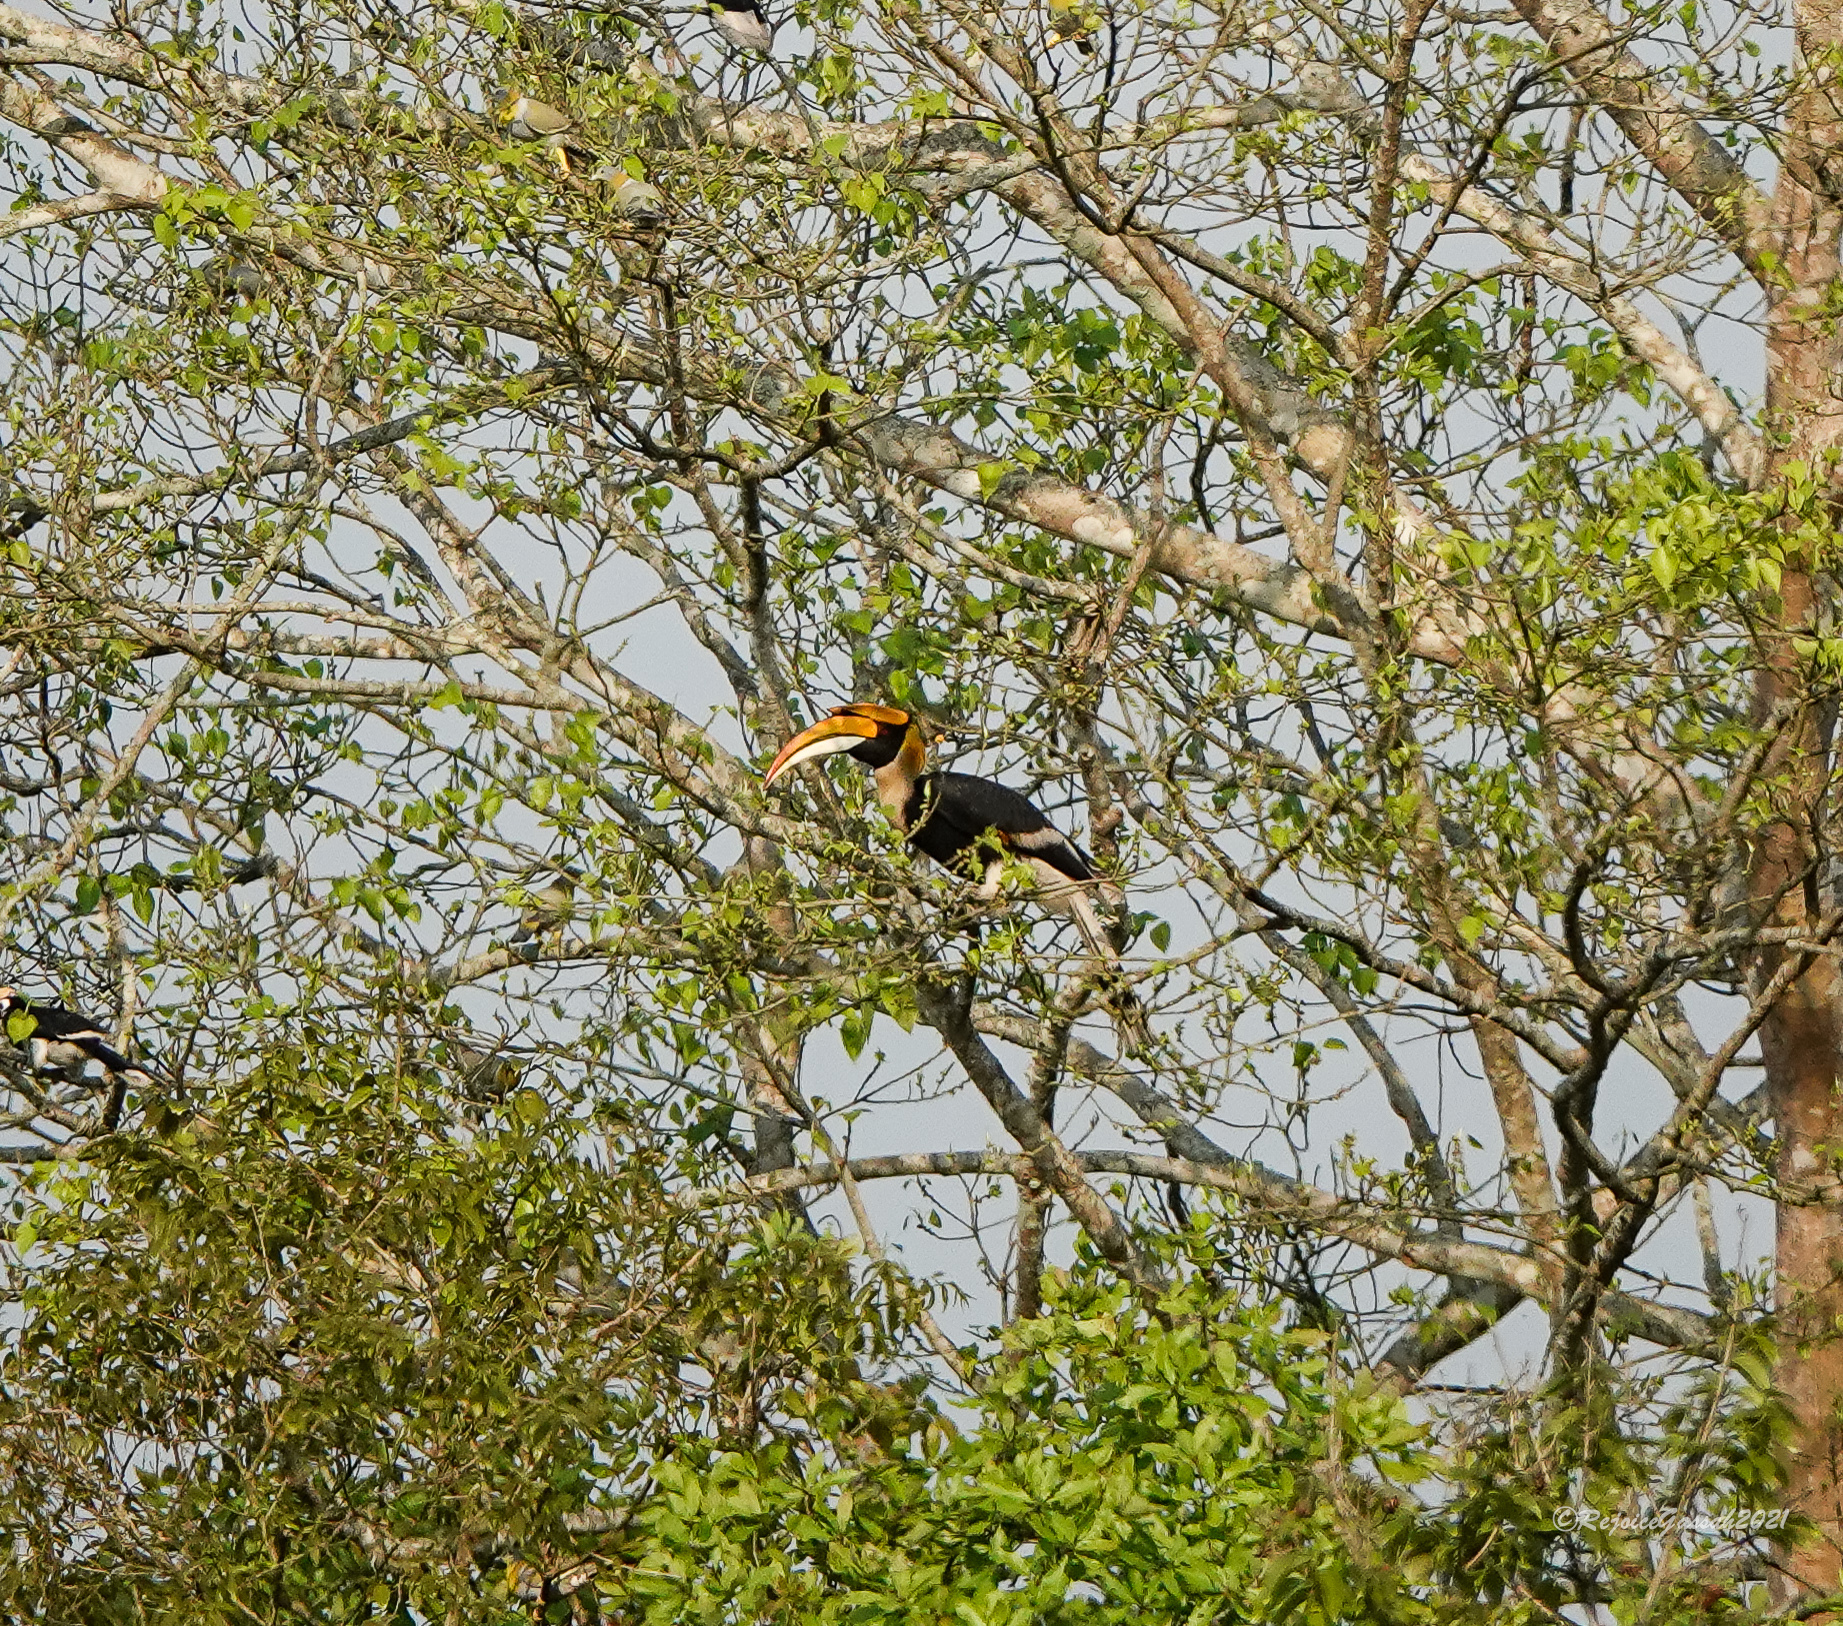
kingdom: Animalia
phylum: Chordata
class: Aves
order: Bucerotiformes
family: Bucerotidae
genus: Buceros
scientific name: Buceros bicornis
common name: Great hornbill
